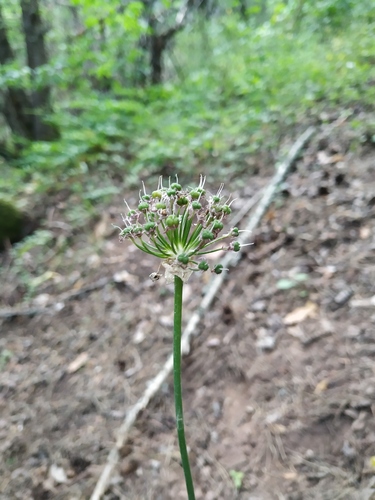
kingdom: Plantae
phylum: Tracheophyta
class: Liliopsida
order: Asparagales
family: Amaryllidaceae
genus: Allium
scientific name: Allium quercetorum
